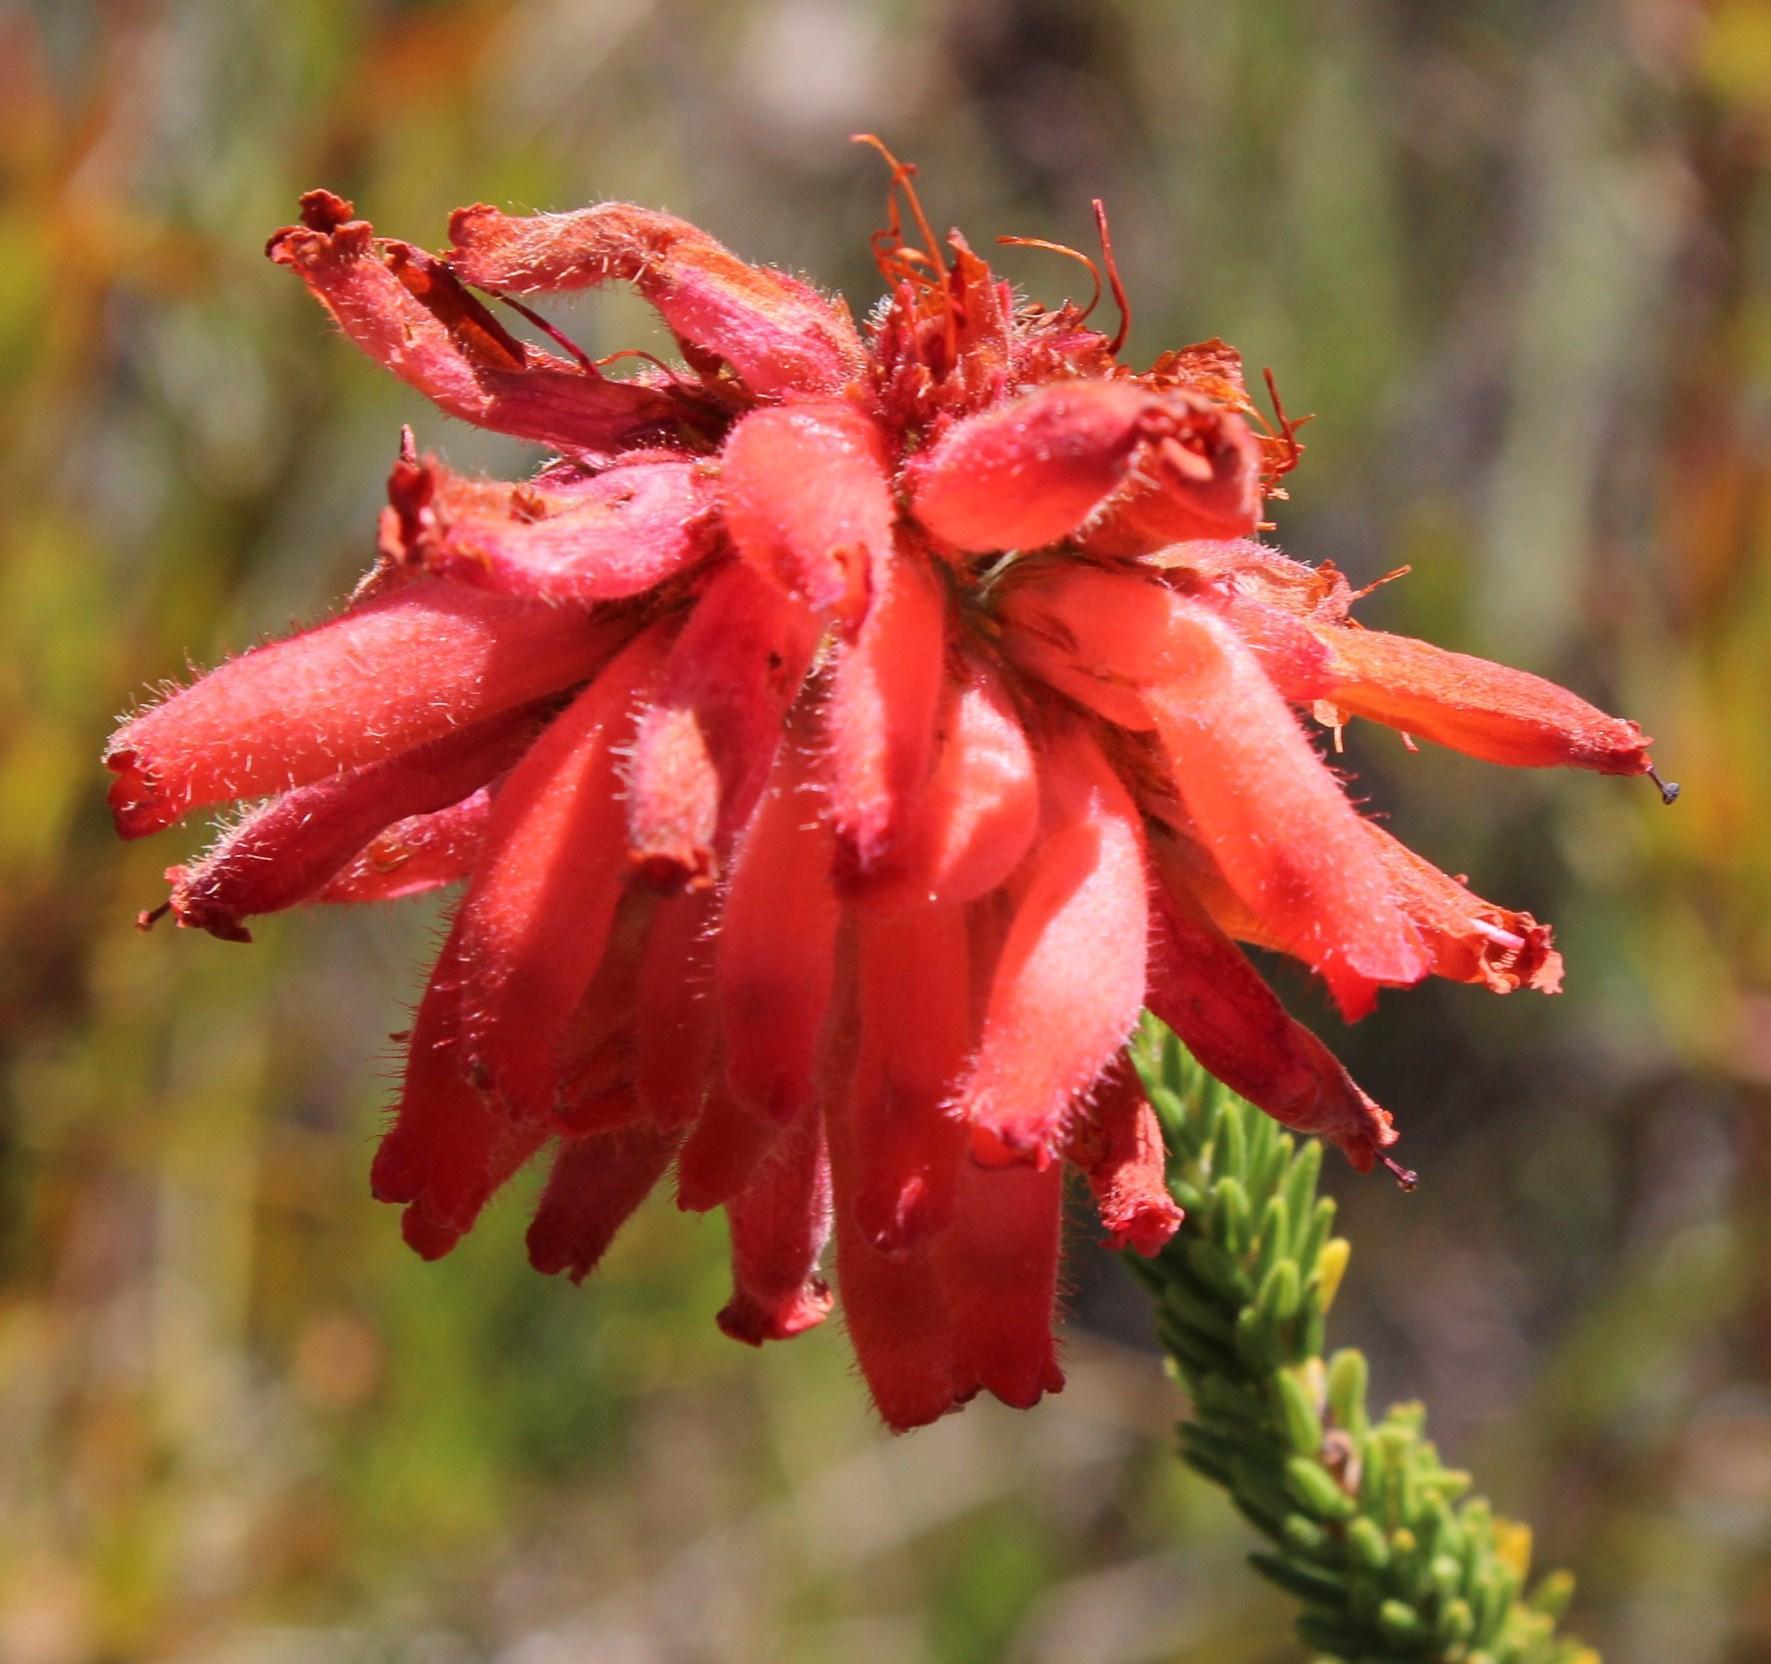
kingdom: Plantae
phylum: Tracheophyta
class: Magnoliopsida
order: Ericales
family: Ericaceae
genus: Erica
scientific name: Erica cerinthoides
